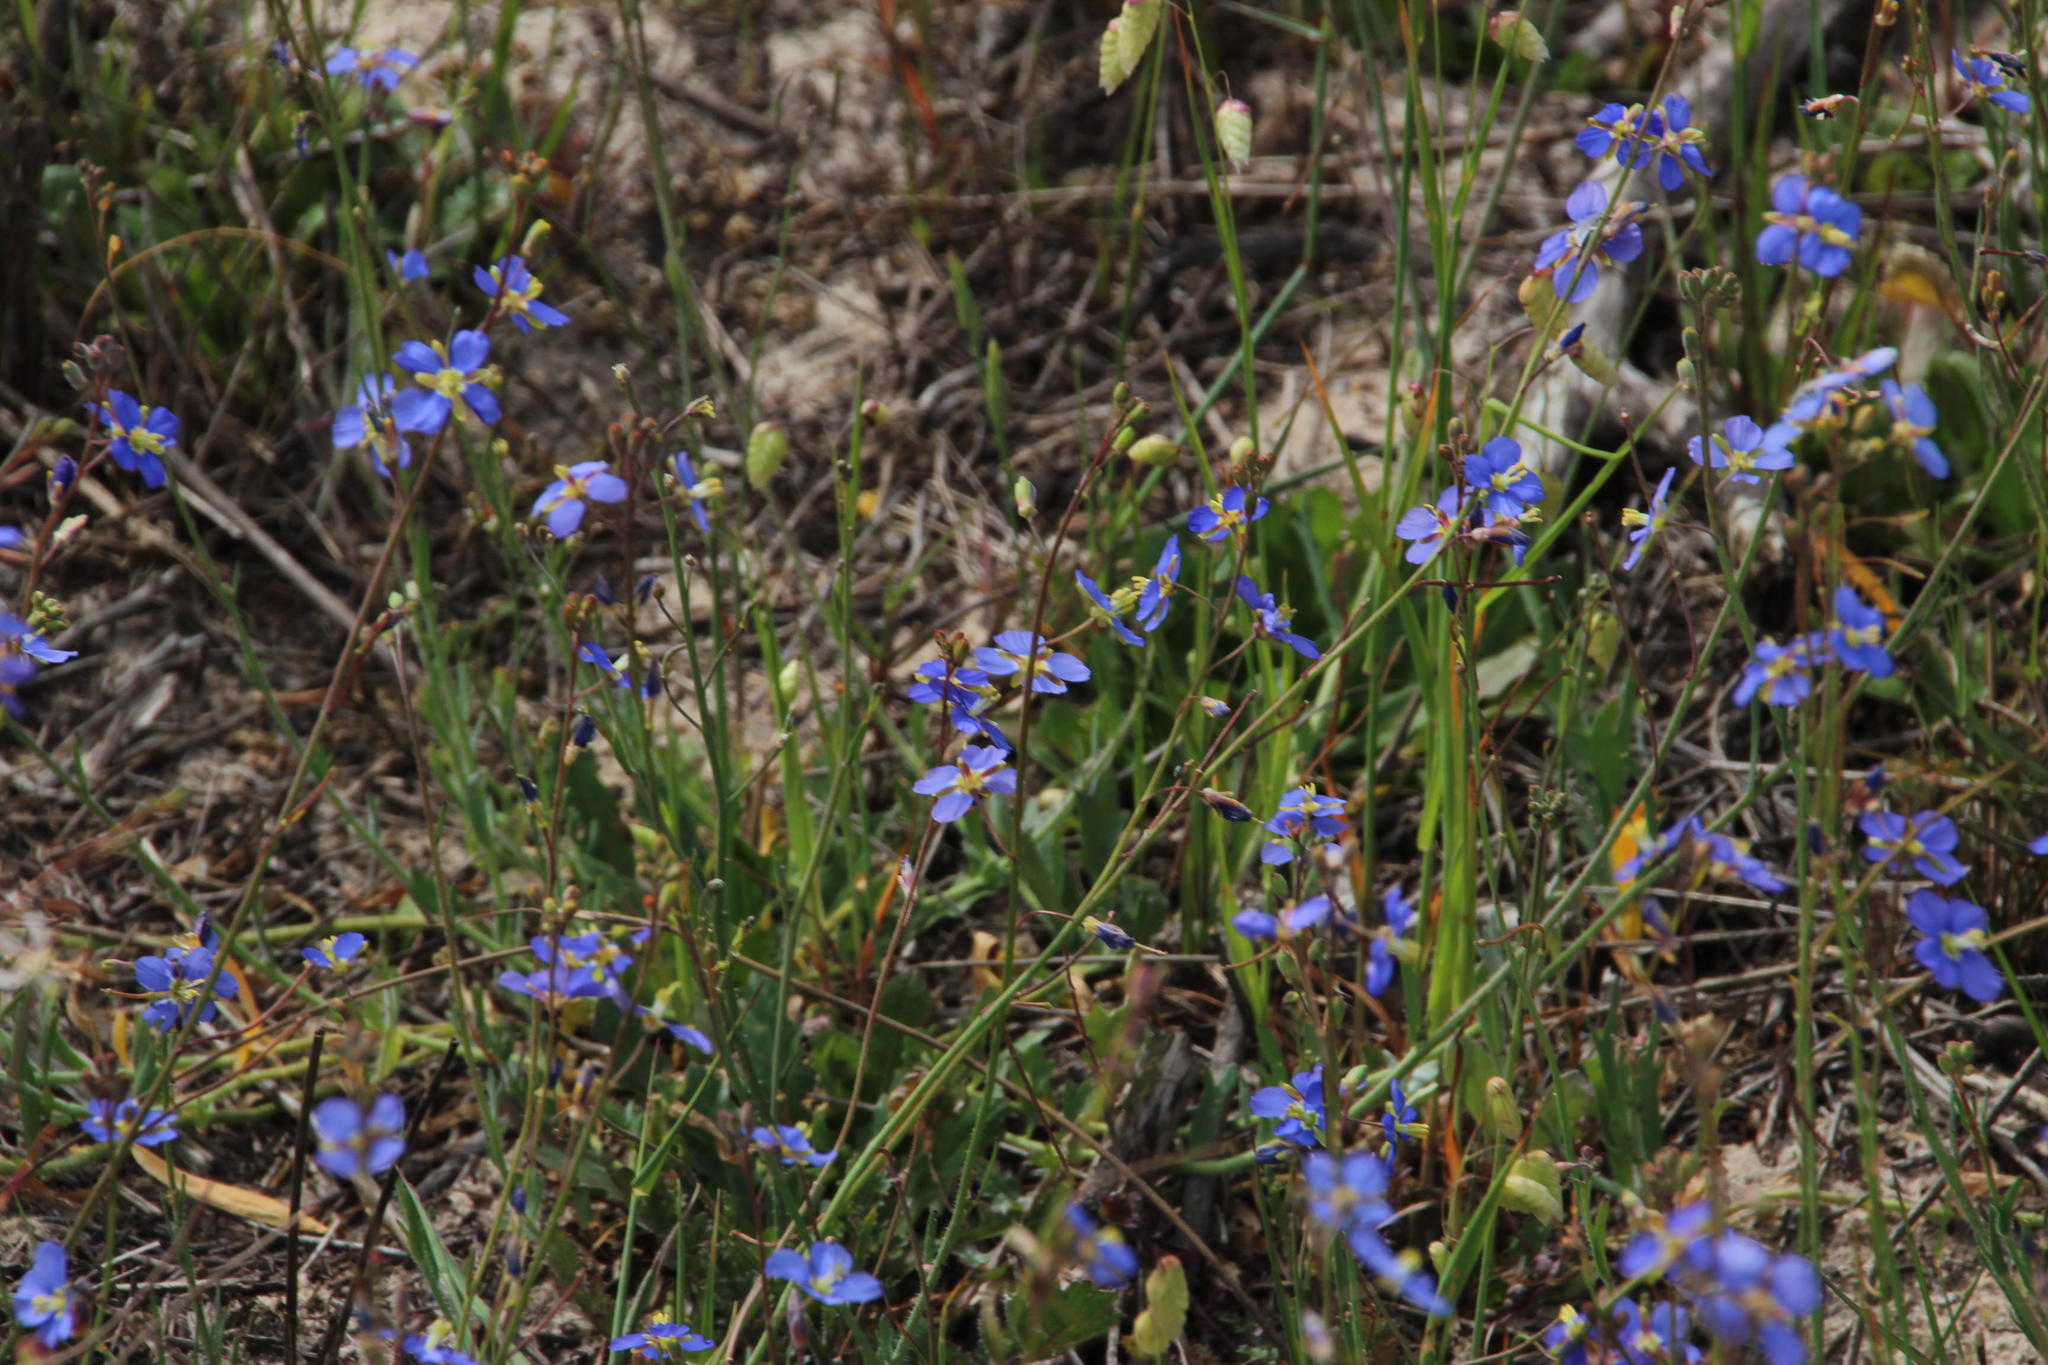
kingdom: Plantae
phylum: Tracheophyta
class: Magnoliopsida
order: Brassicales
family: Brassicaceae
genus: Heliophila
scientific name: Heliophila africana
